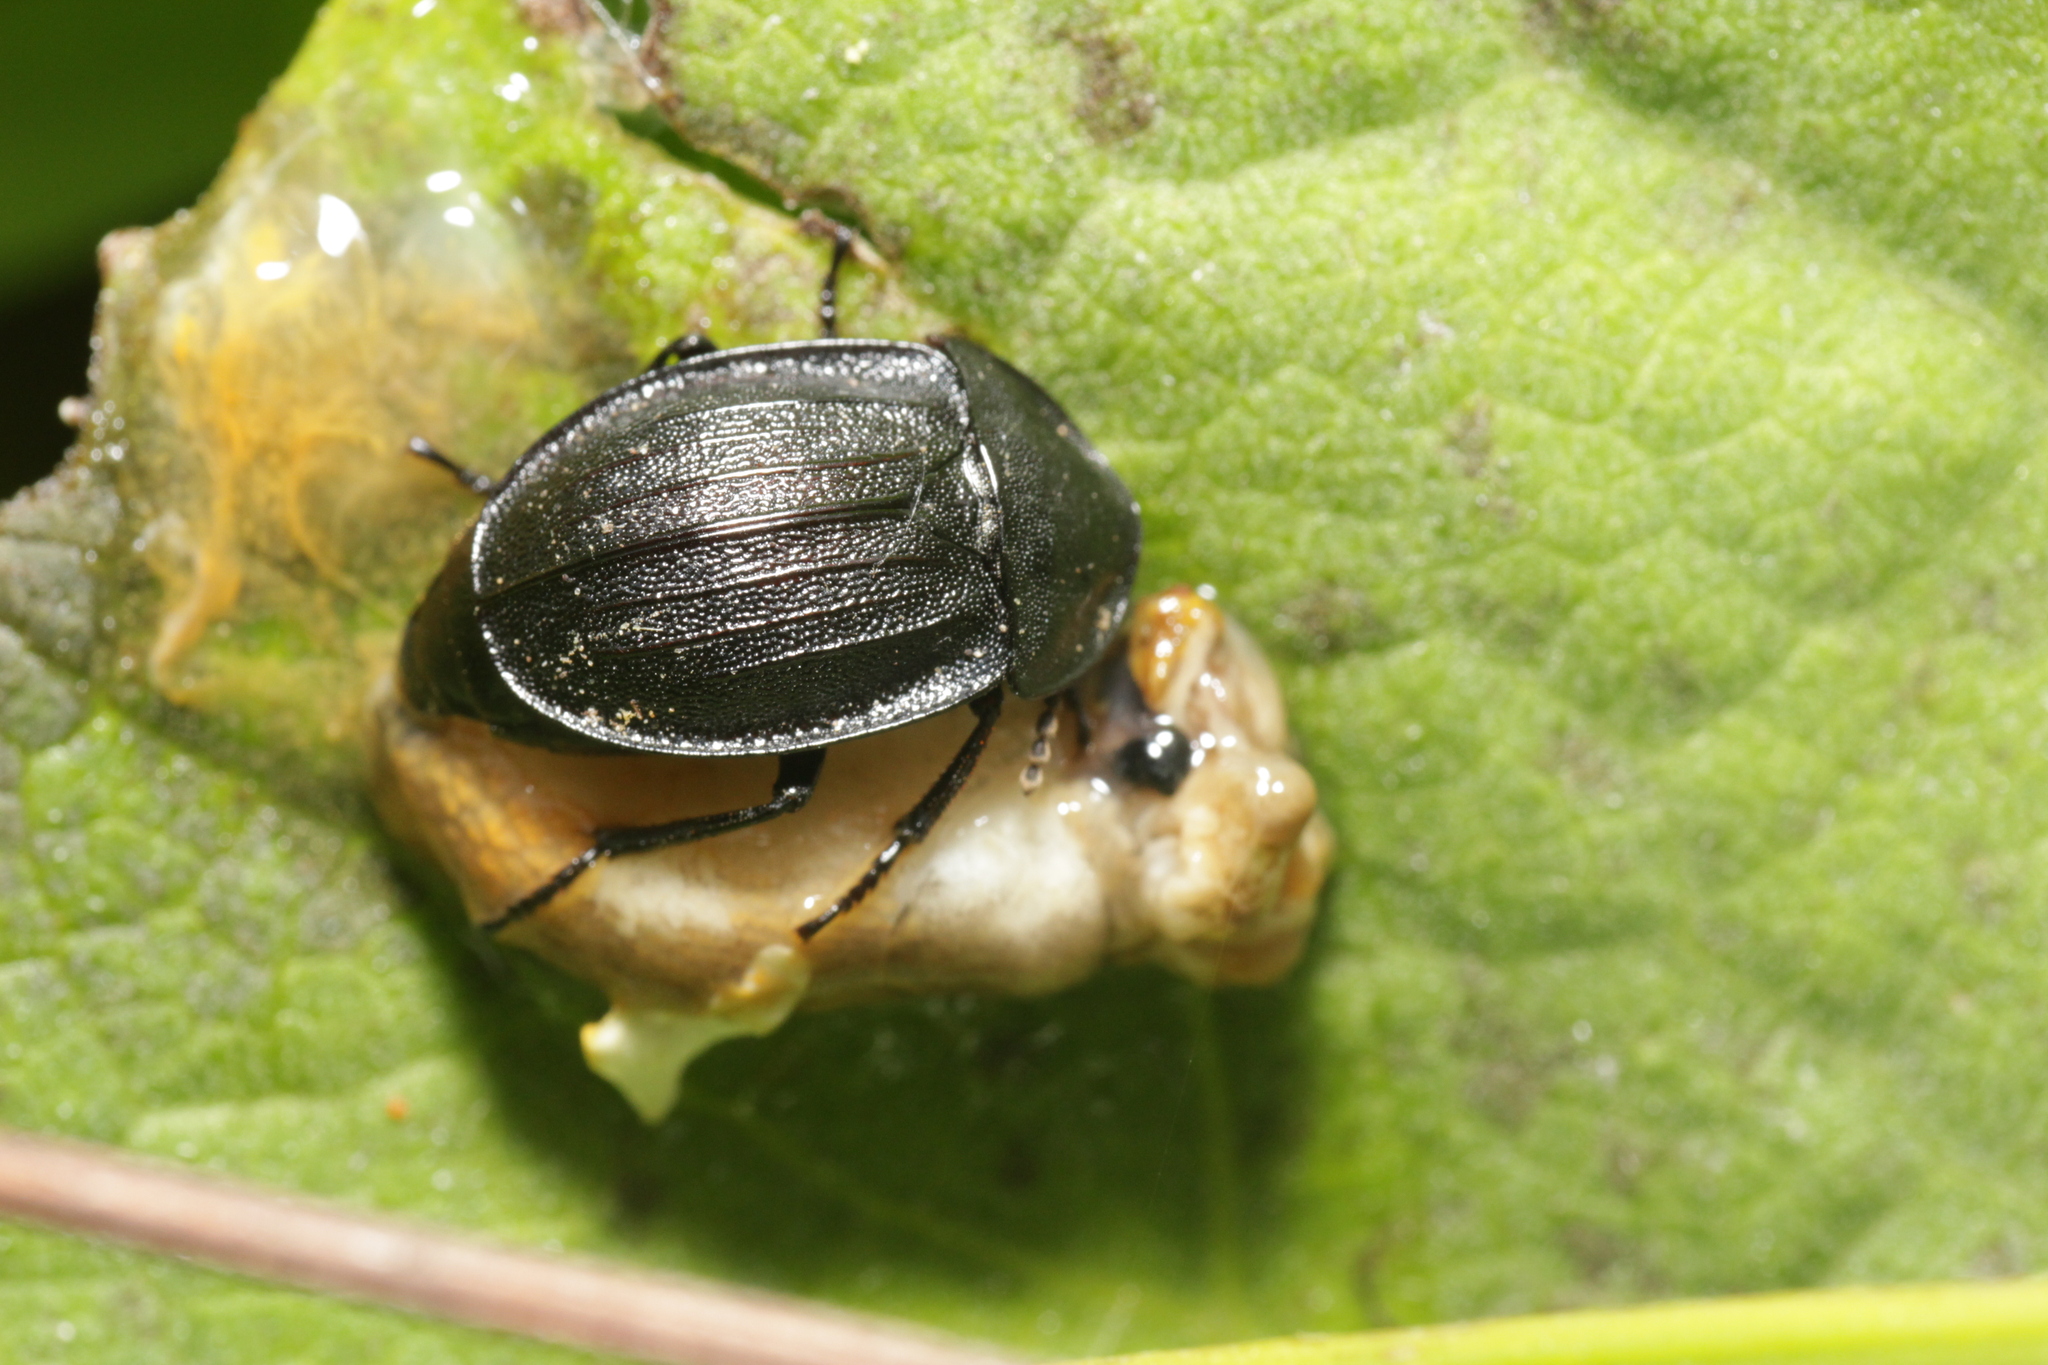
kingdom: Animalia
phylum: Arthropoda
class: Insecta
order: Coleoptera
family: Staphylinidae
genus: Silpha
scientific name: Silpha atrata
